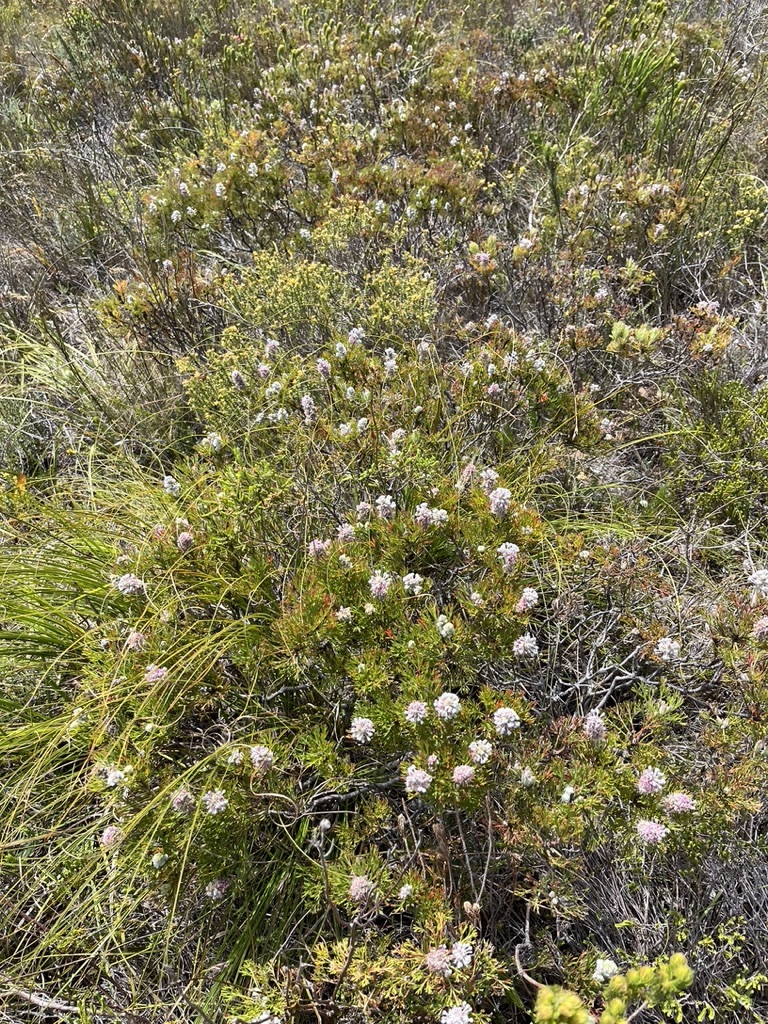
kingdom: Plantae
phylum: Tracheophyta
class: Magnoliopsida
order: Proteales
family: Proteaceae
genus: Paranomus
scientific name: Paranomus abrotanifolius
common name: Bredasdorp sceptre
